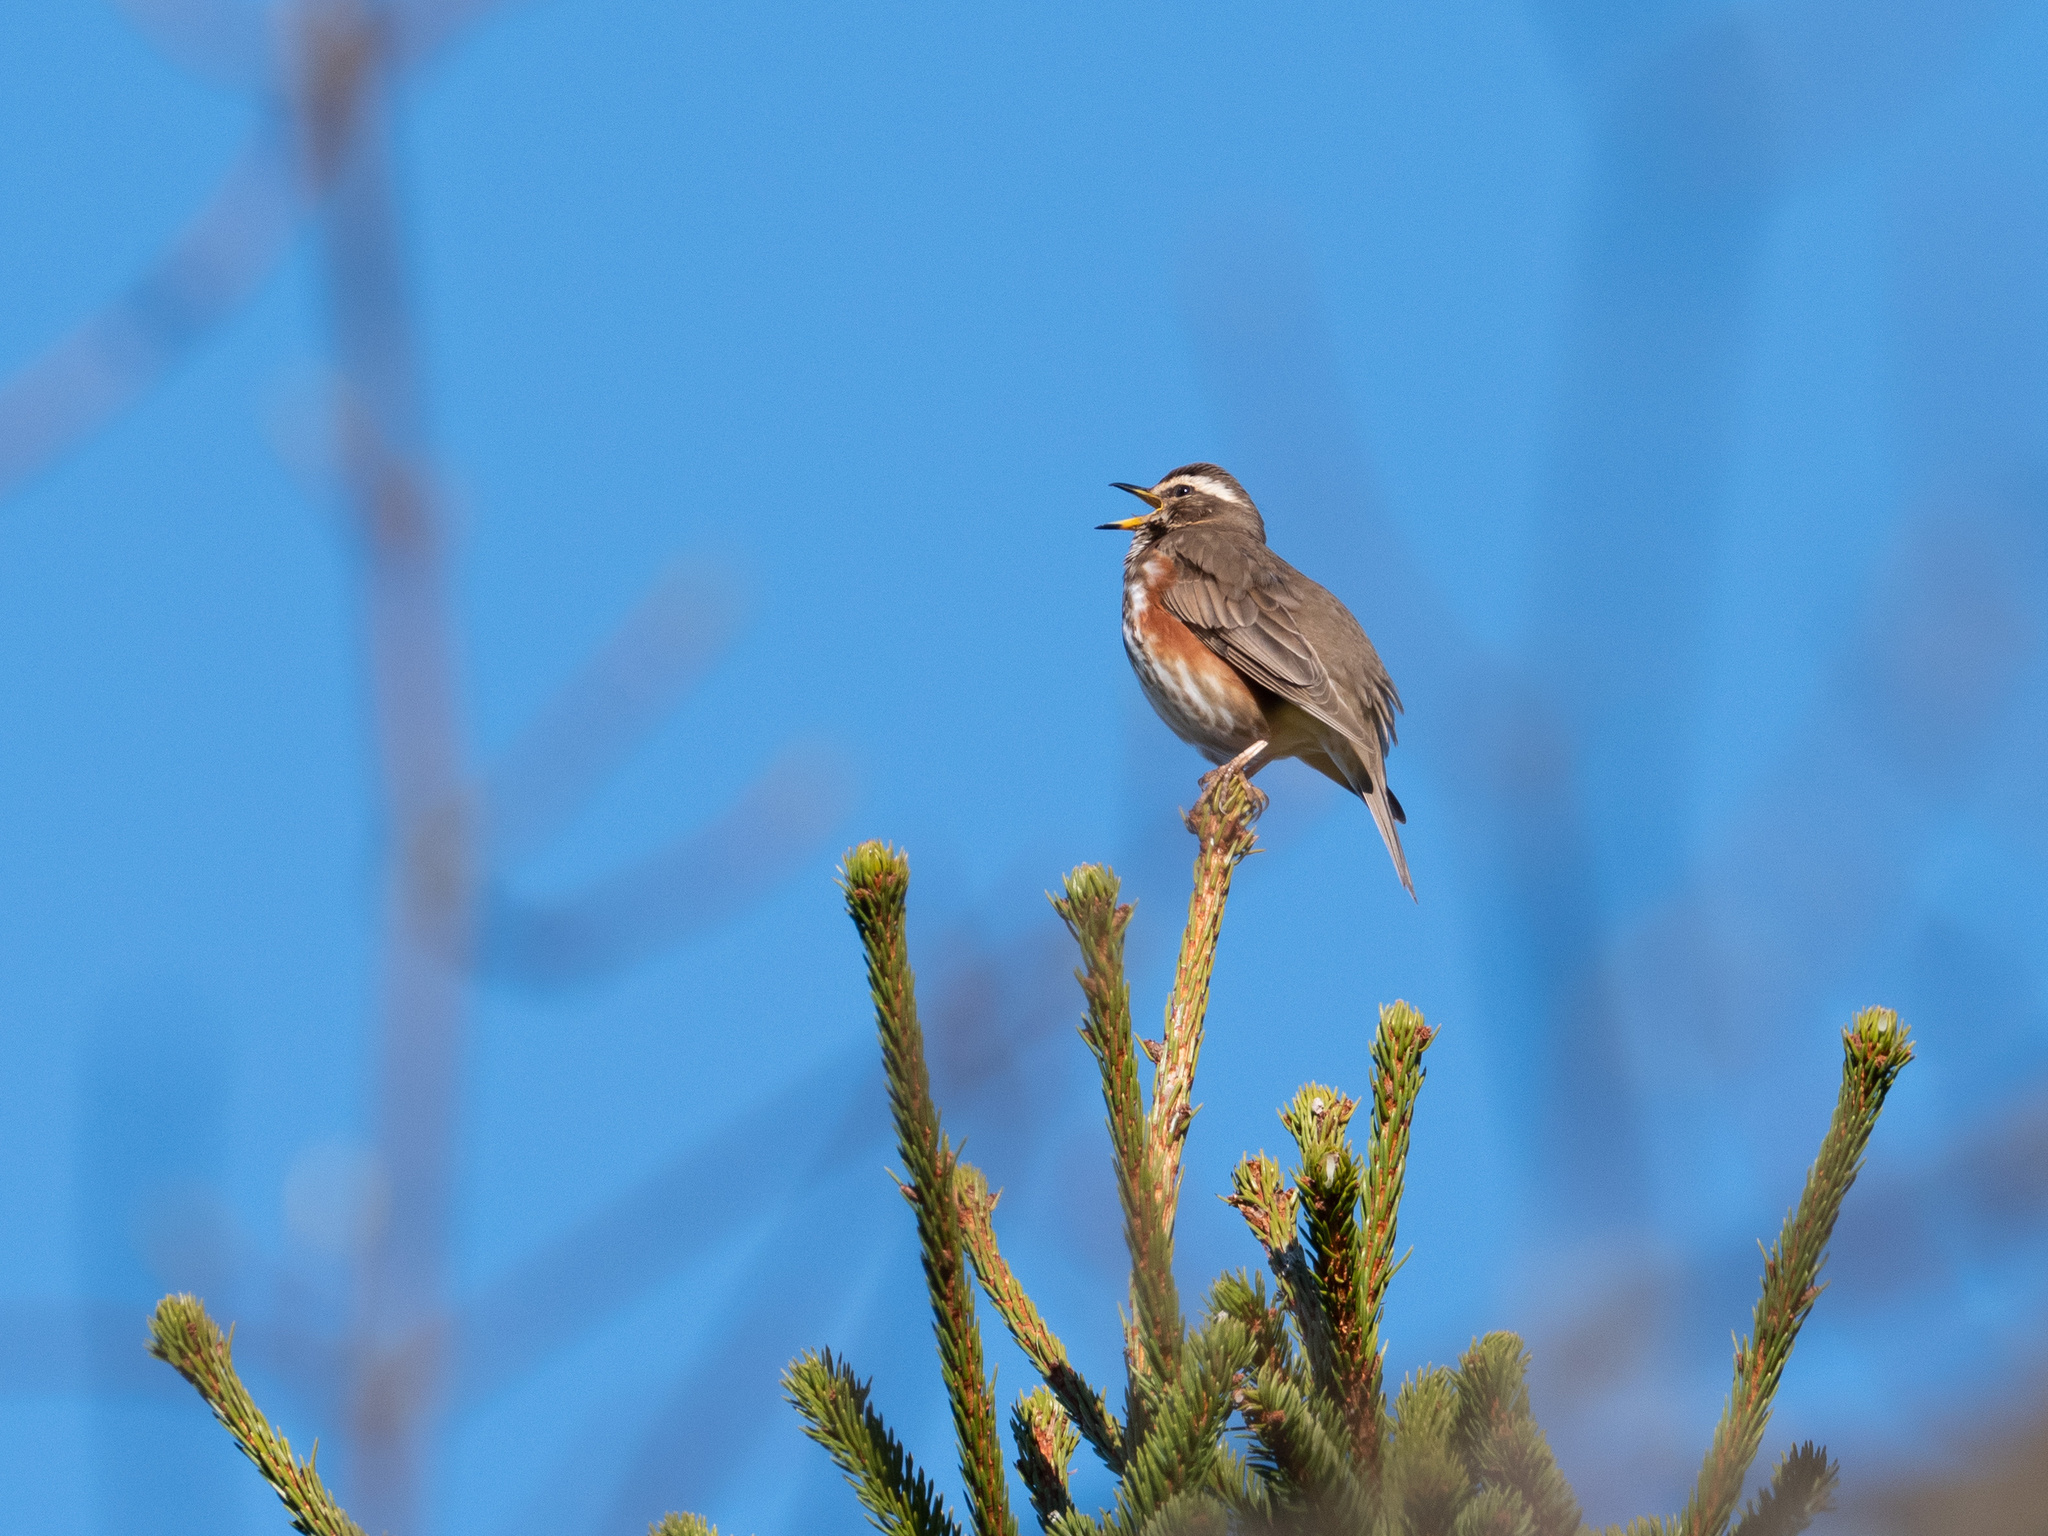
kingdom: Animalia
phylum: Chordata
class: Aves
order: Passeriformes
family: Turdidae
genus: Turdus
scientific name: Turdus iliacus
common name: Redwing
